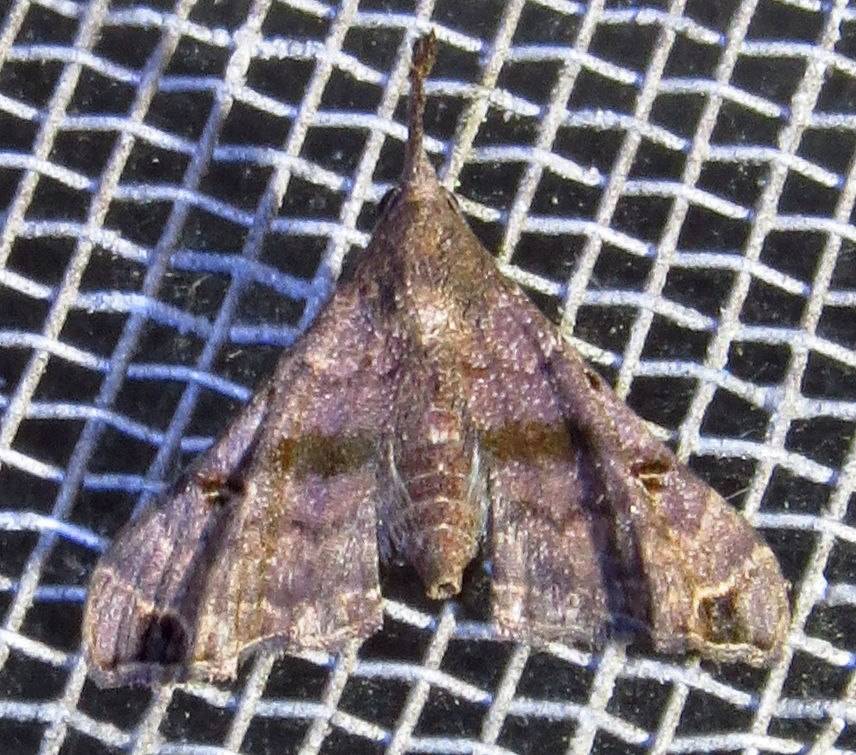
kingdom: Animalia
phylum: Arthropoda
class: Insecta
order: Lepidoptera
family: Erebidae
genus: Palthis
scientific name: Palthis asopialis
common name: Faint-spotted palthis moth
